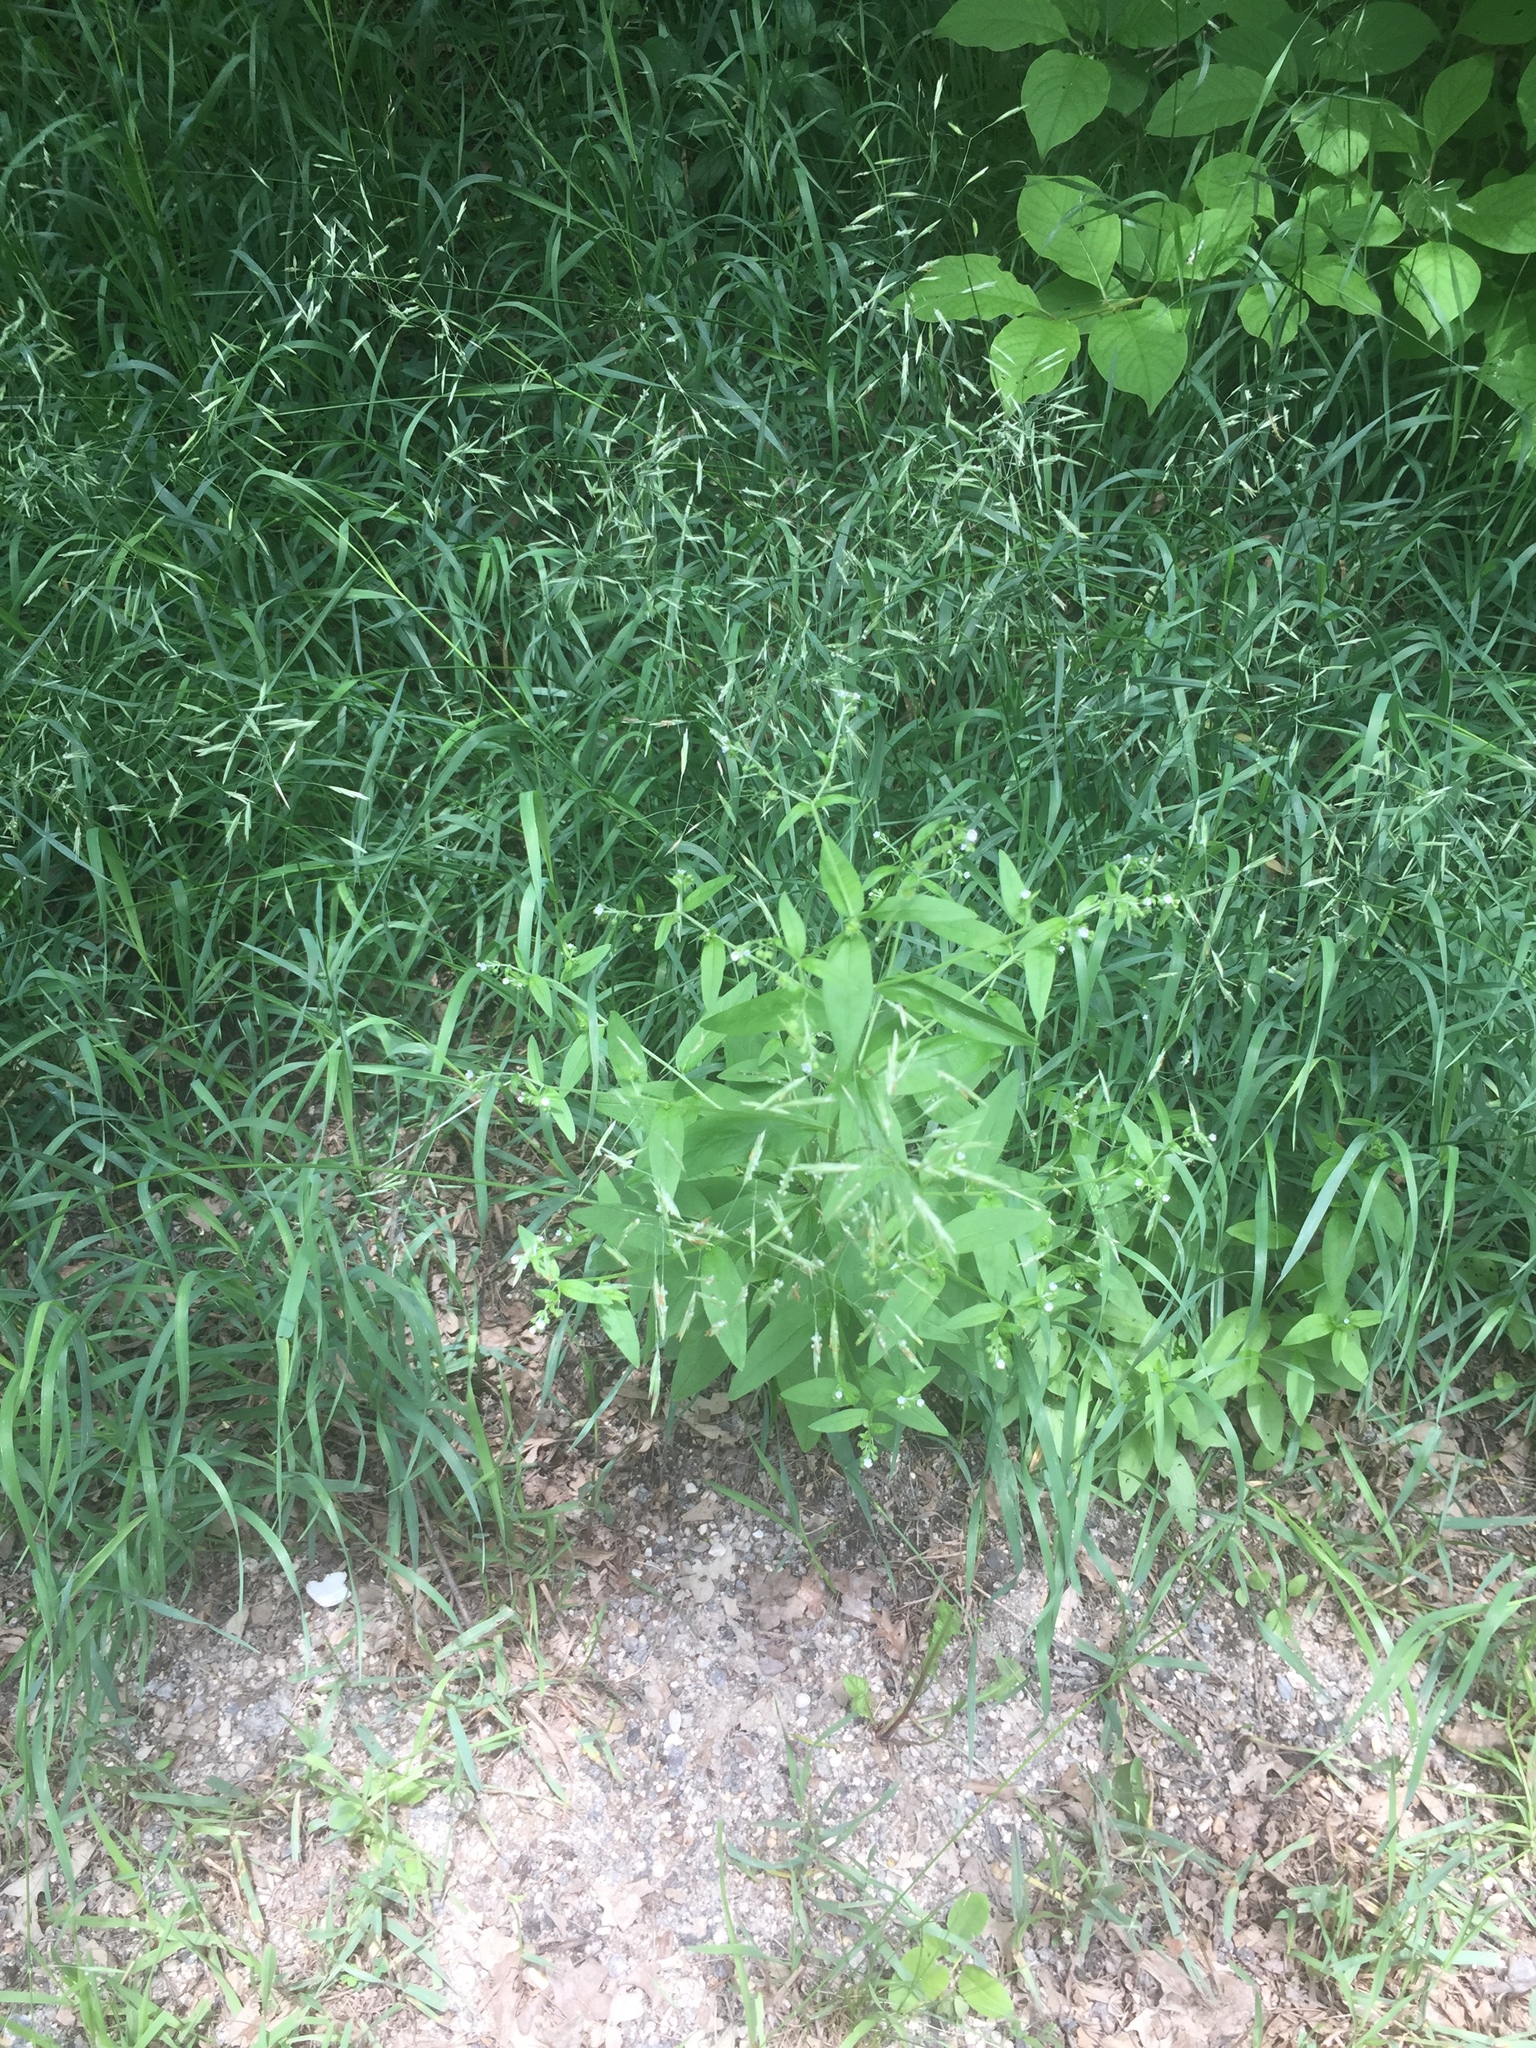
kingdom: Plantae
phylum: Tracheophyta
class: Magnoliopsida
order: Boraginales
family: Boraginaceae
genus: Hackelia
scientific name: Hackelia deflexa
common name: Nodding stickseed
